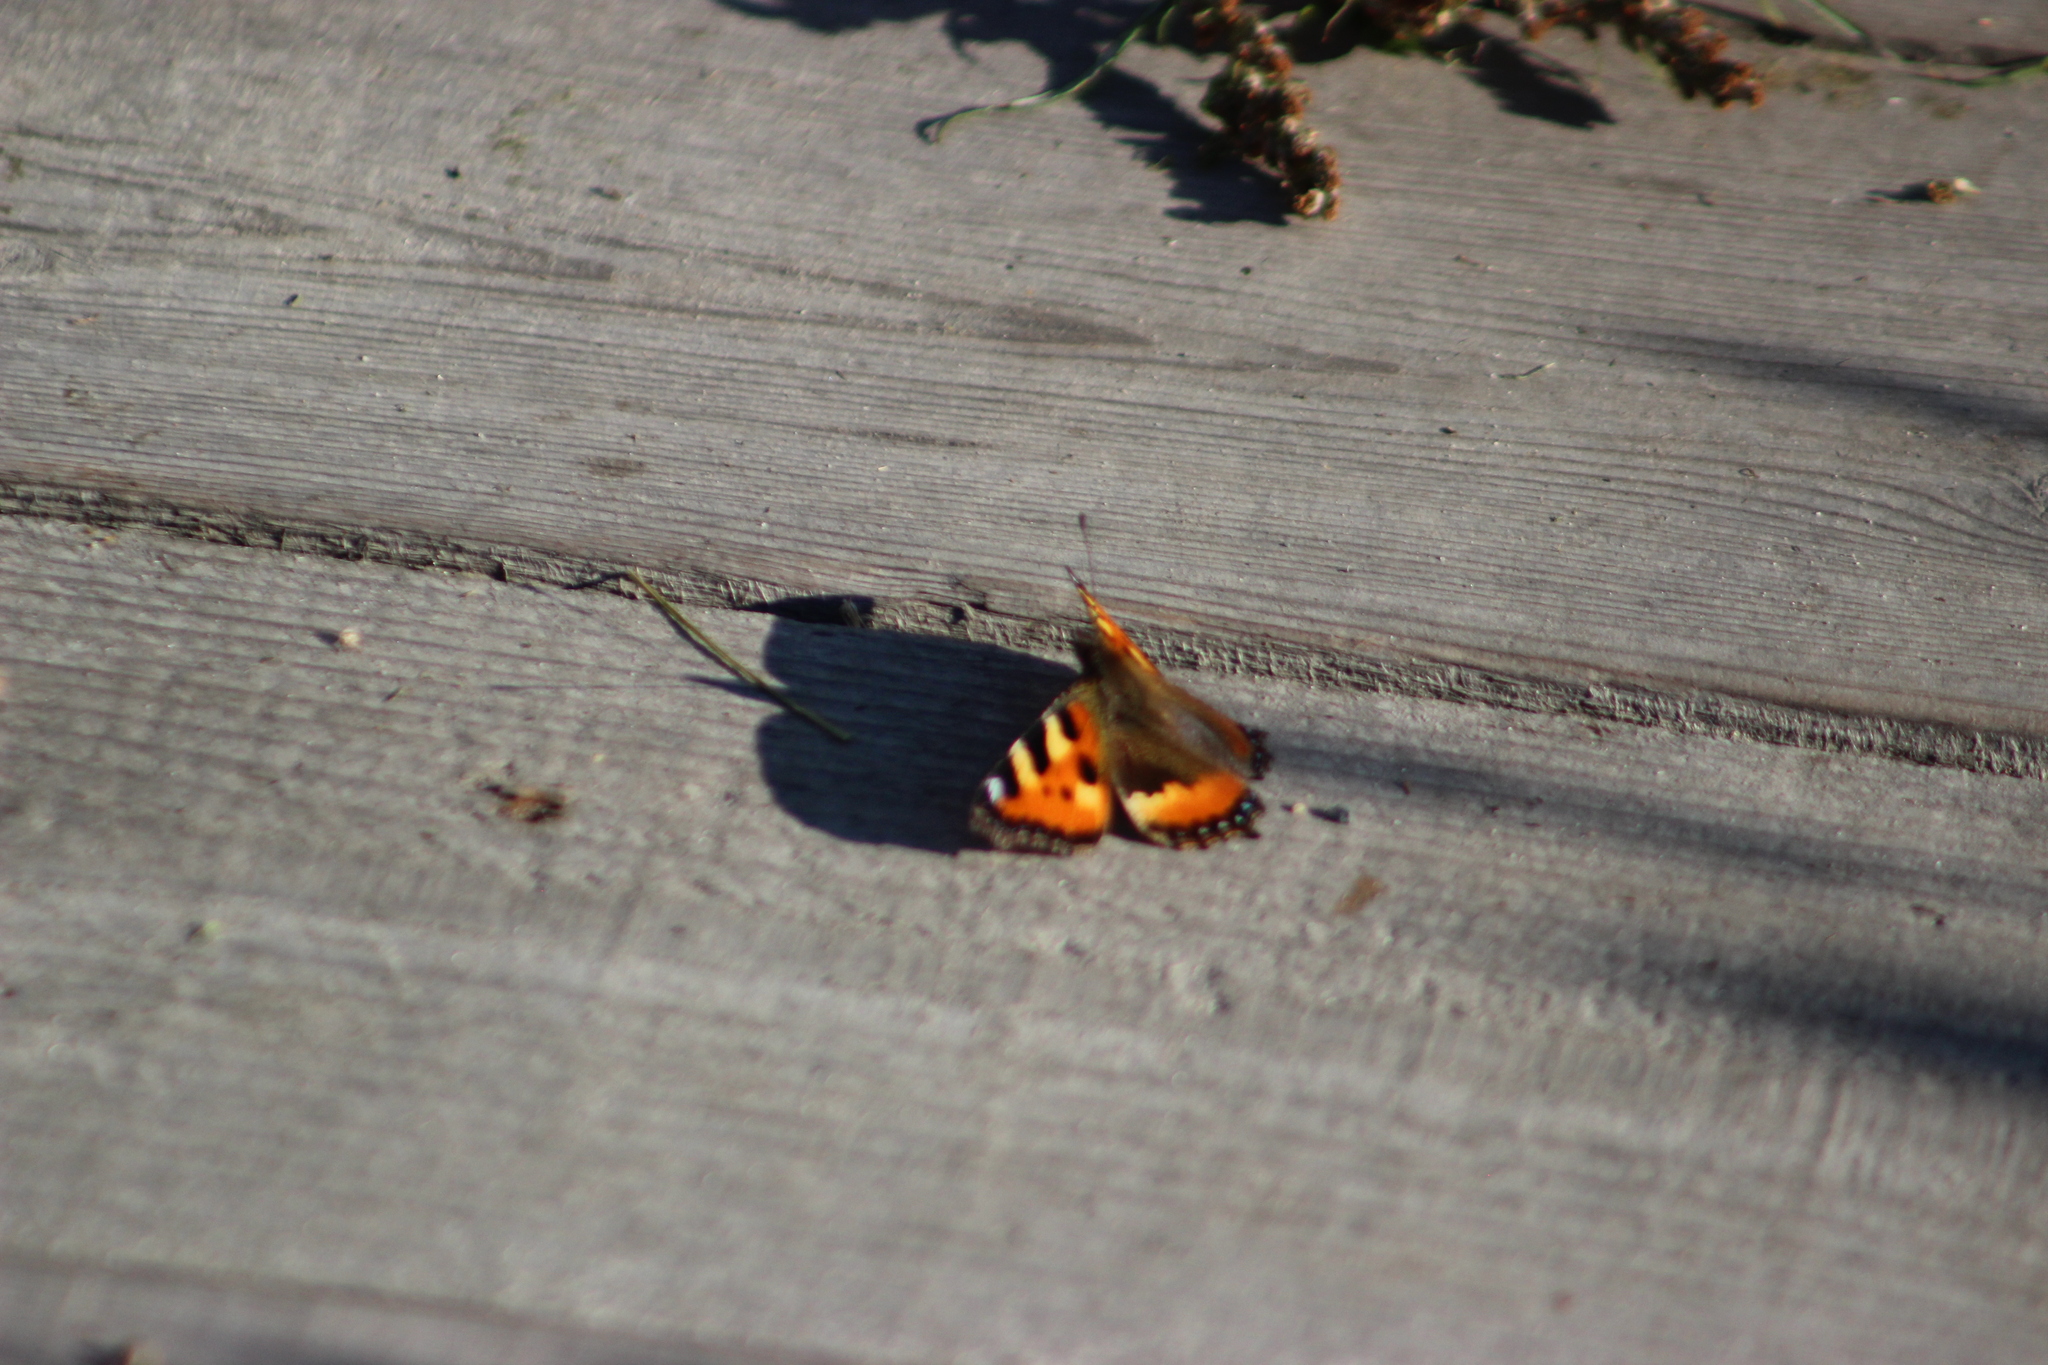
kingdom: Animalia
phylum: Arthropoda
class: Insecta
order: Lepidoptera
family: Nymphalidae
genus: Aglais
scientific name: Aglais urticae
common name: Small tortoiseshell
